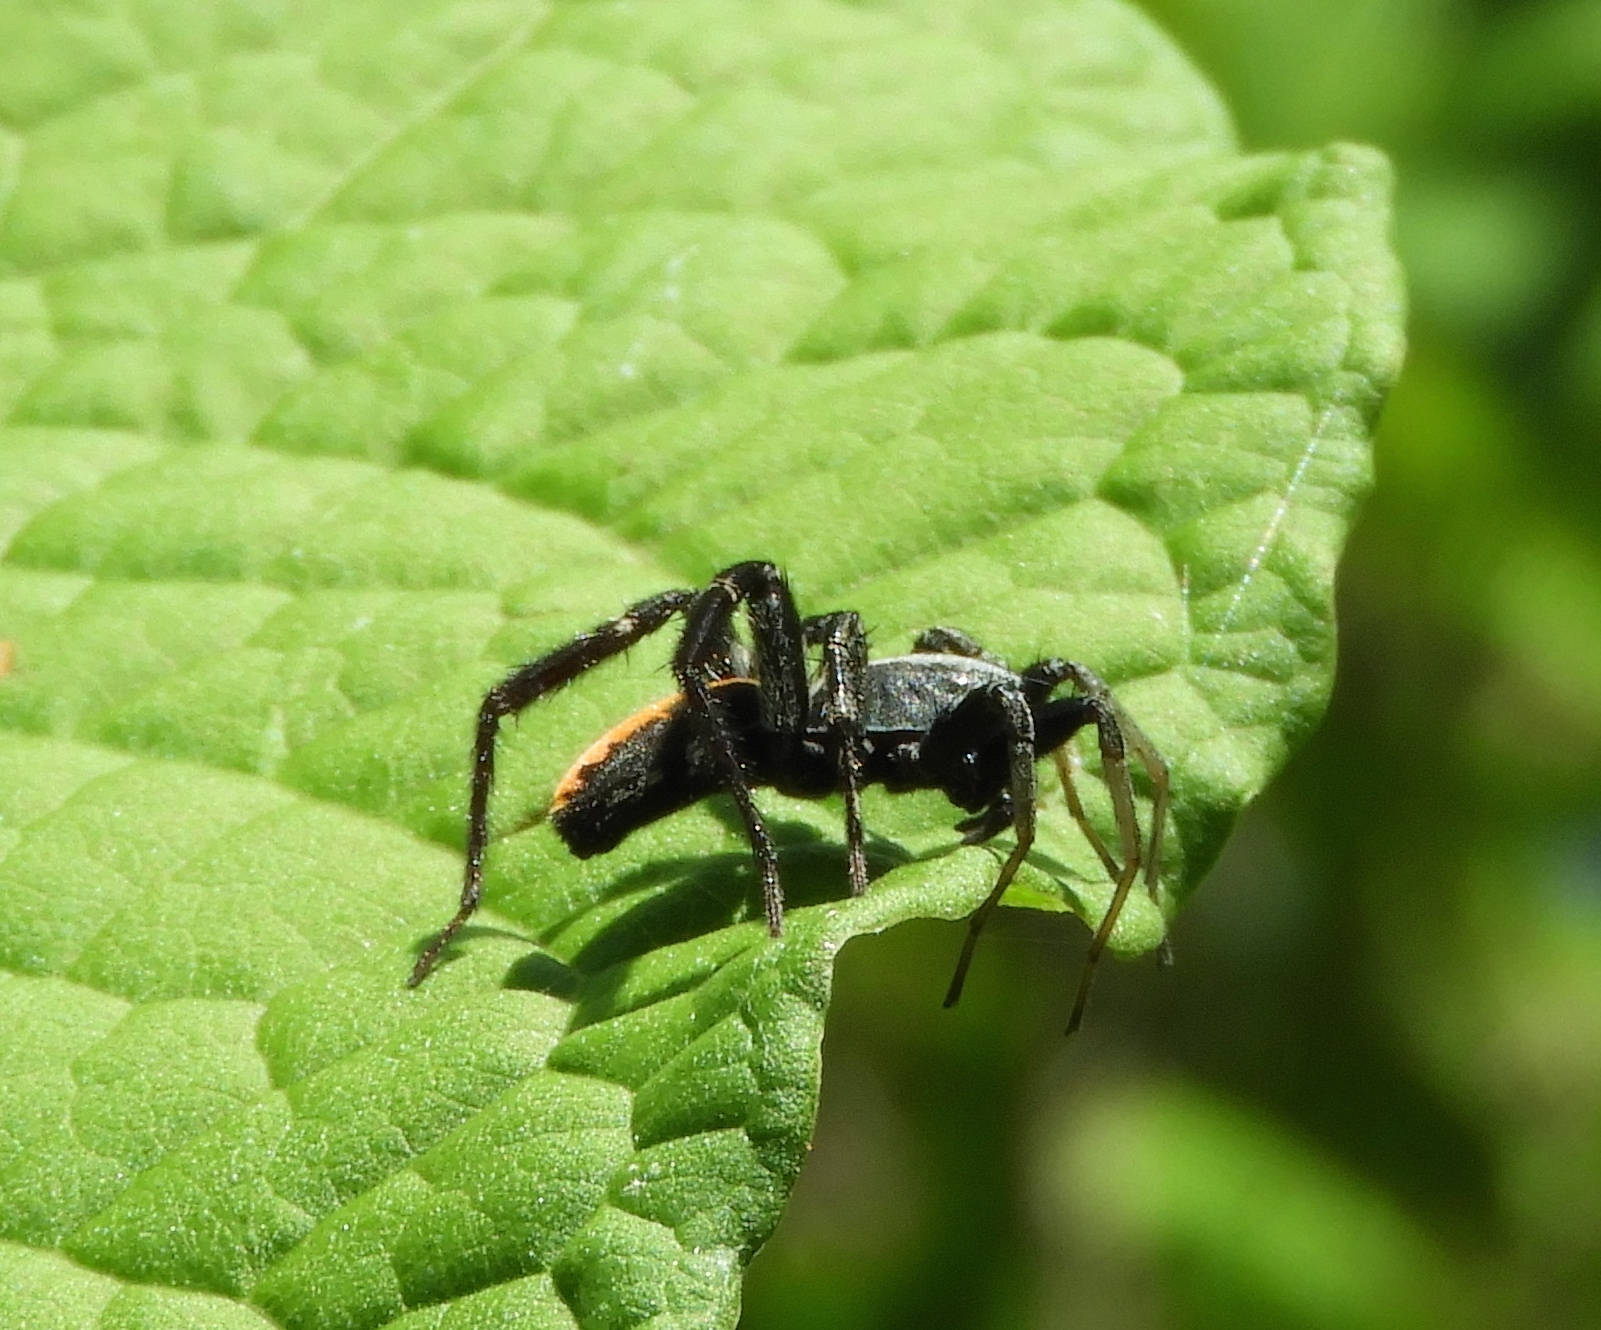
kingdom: Animalia
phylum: Arthropoda
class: Arachnida
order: Araneae
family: Corinnidae
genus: Castianeira
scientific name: Castianeira dorsata
